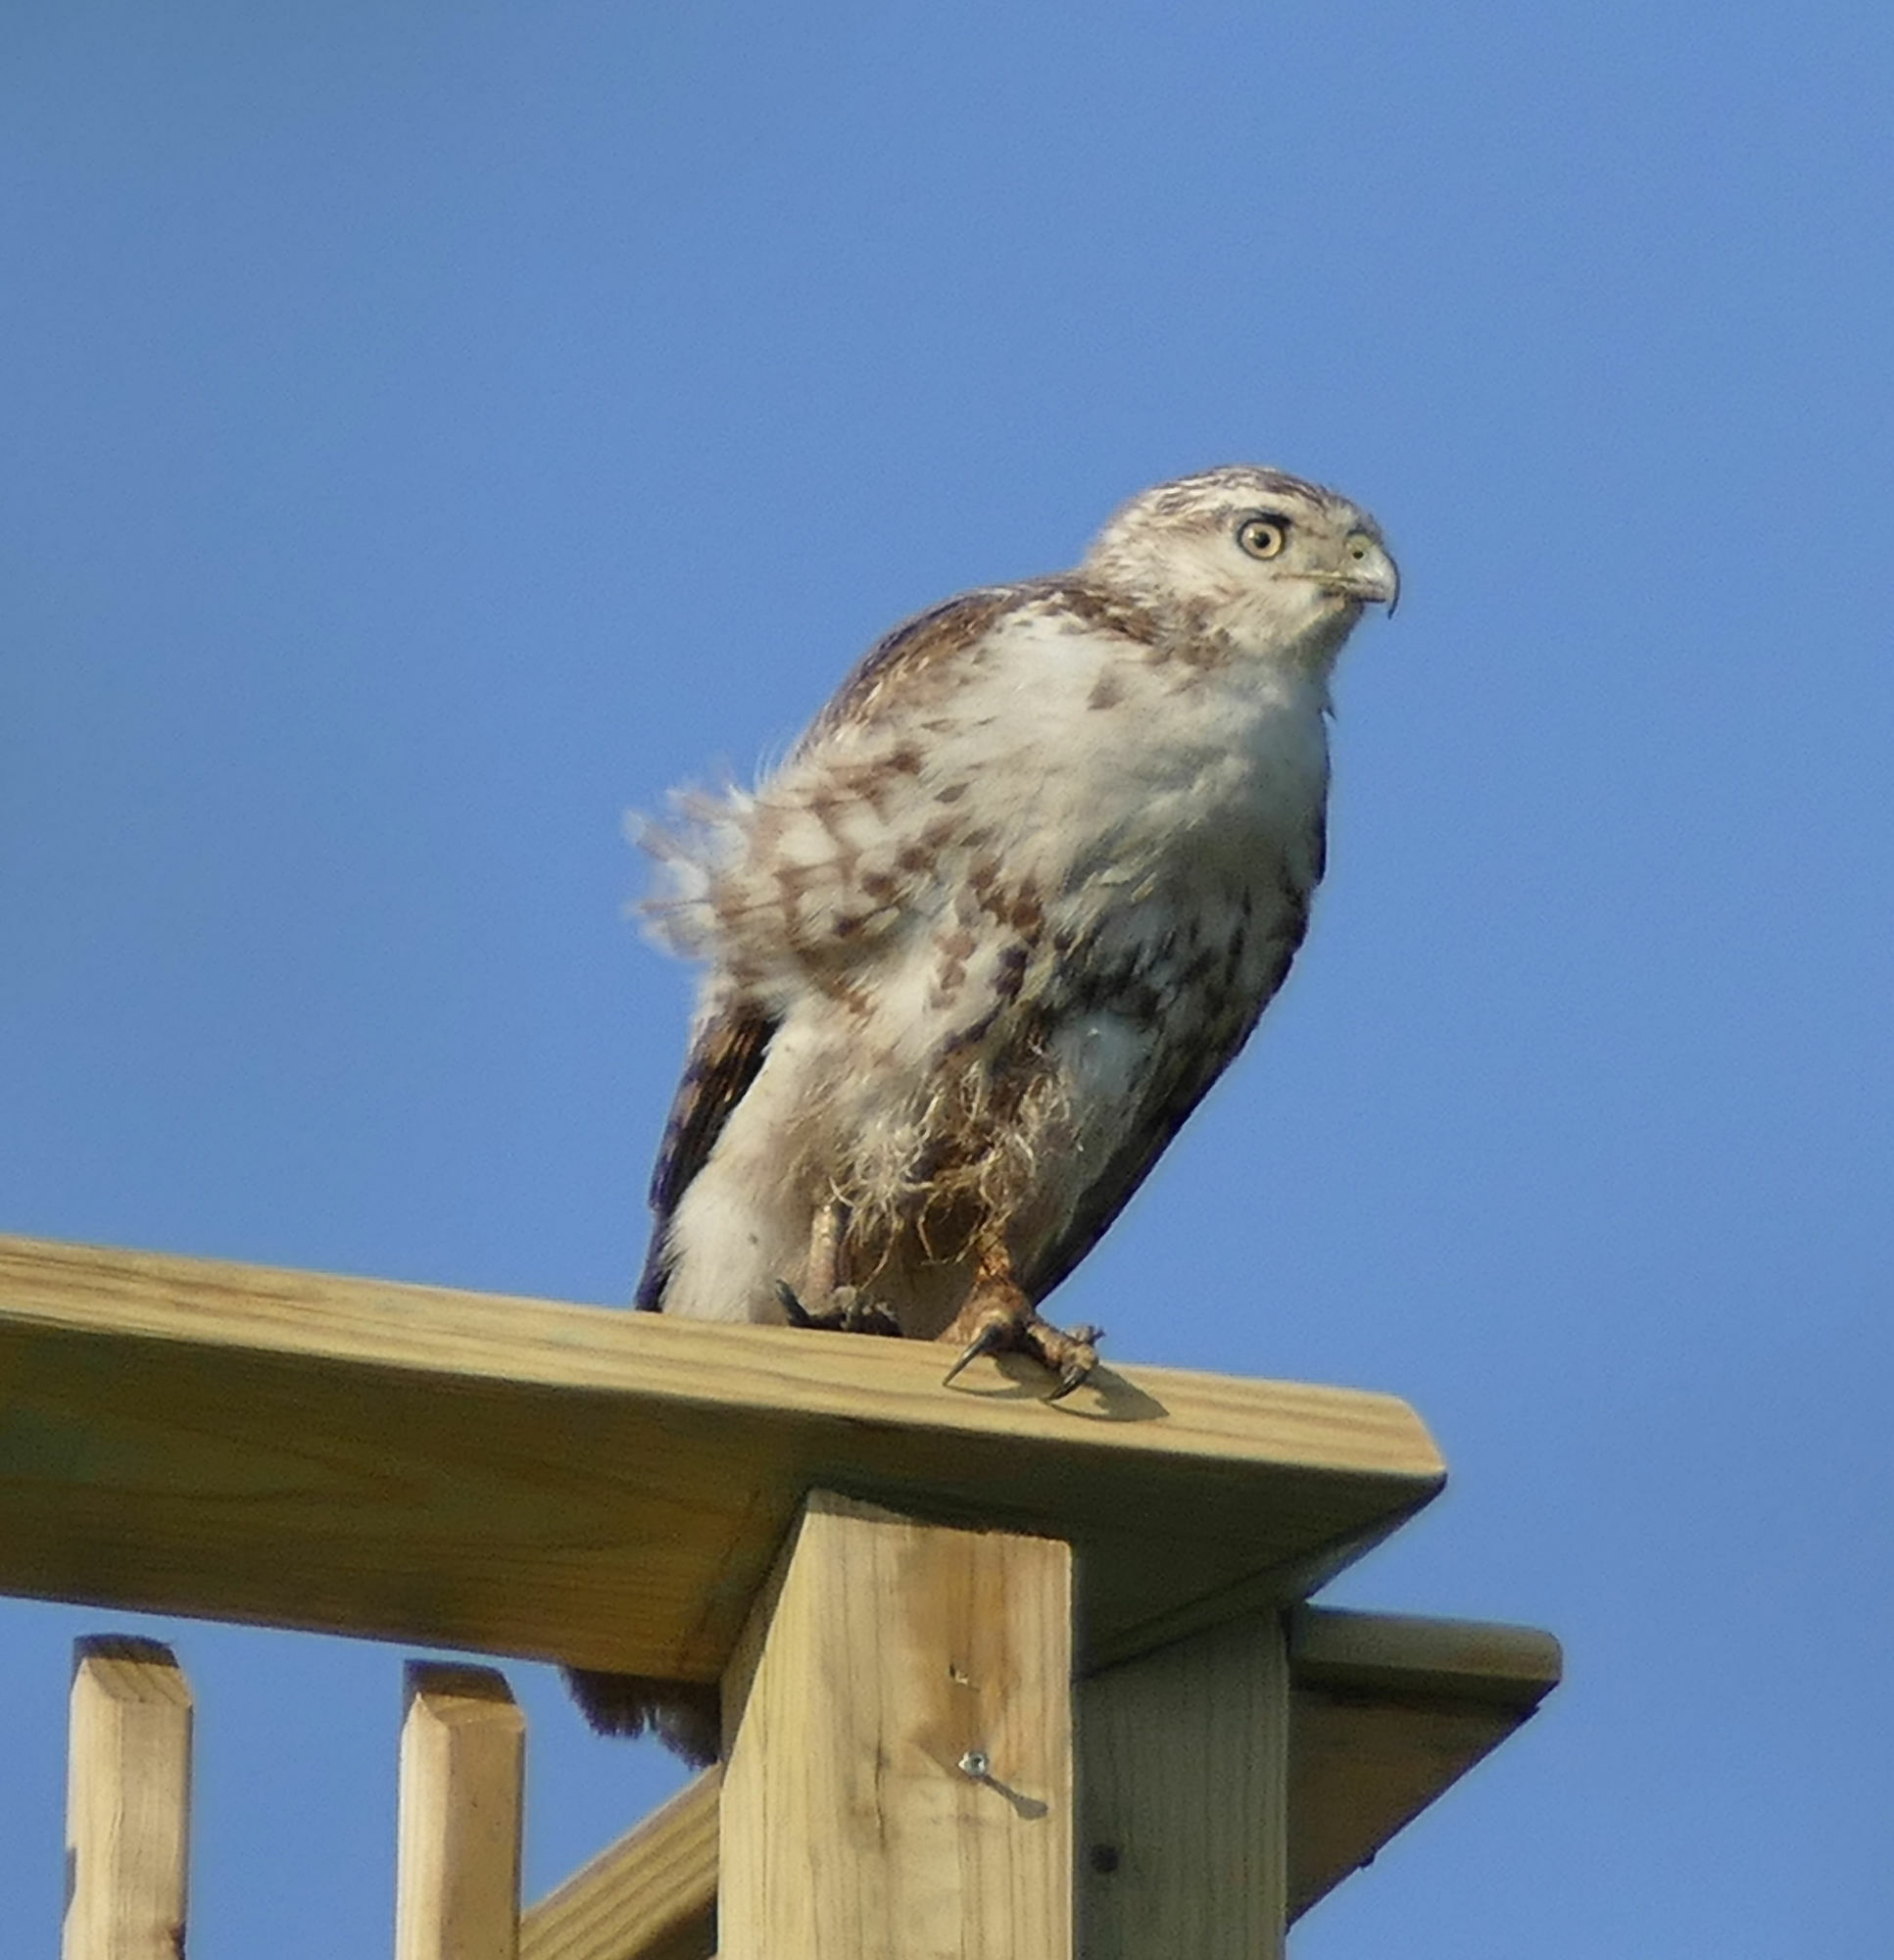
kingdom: Animalia
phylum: Chordata
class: Aves
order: Accipitriformes
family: Accipitridae
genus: Buteo
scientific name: Buteo jamaicensis
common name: Red-tailed hawk
